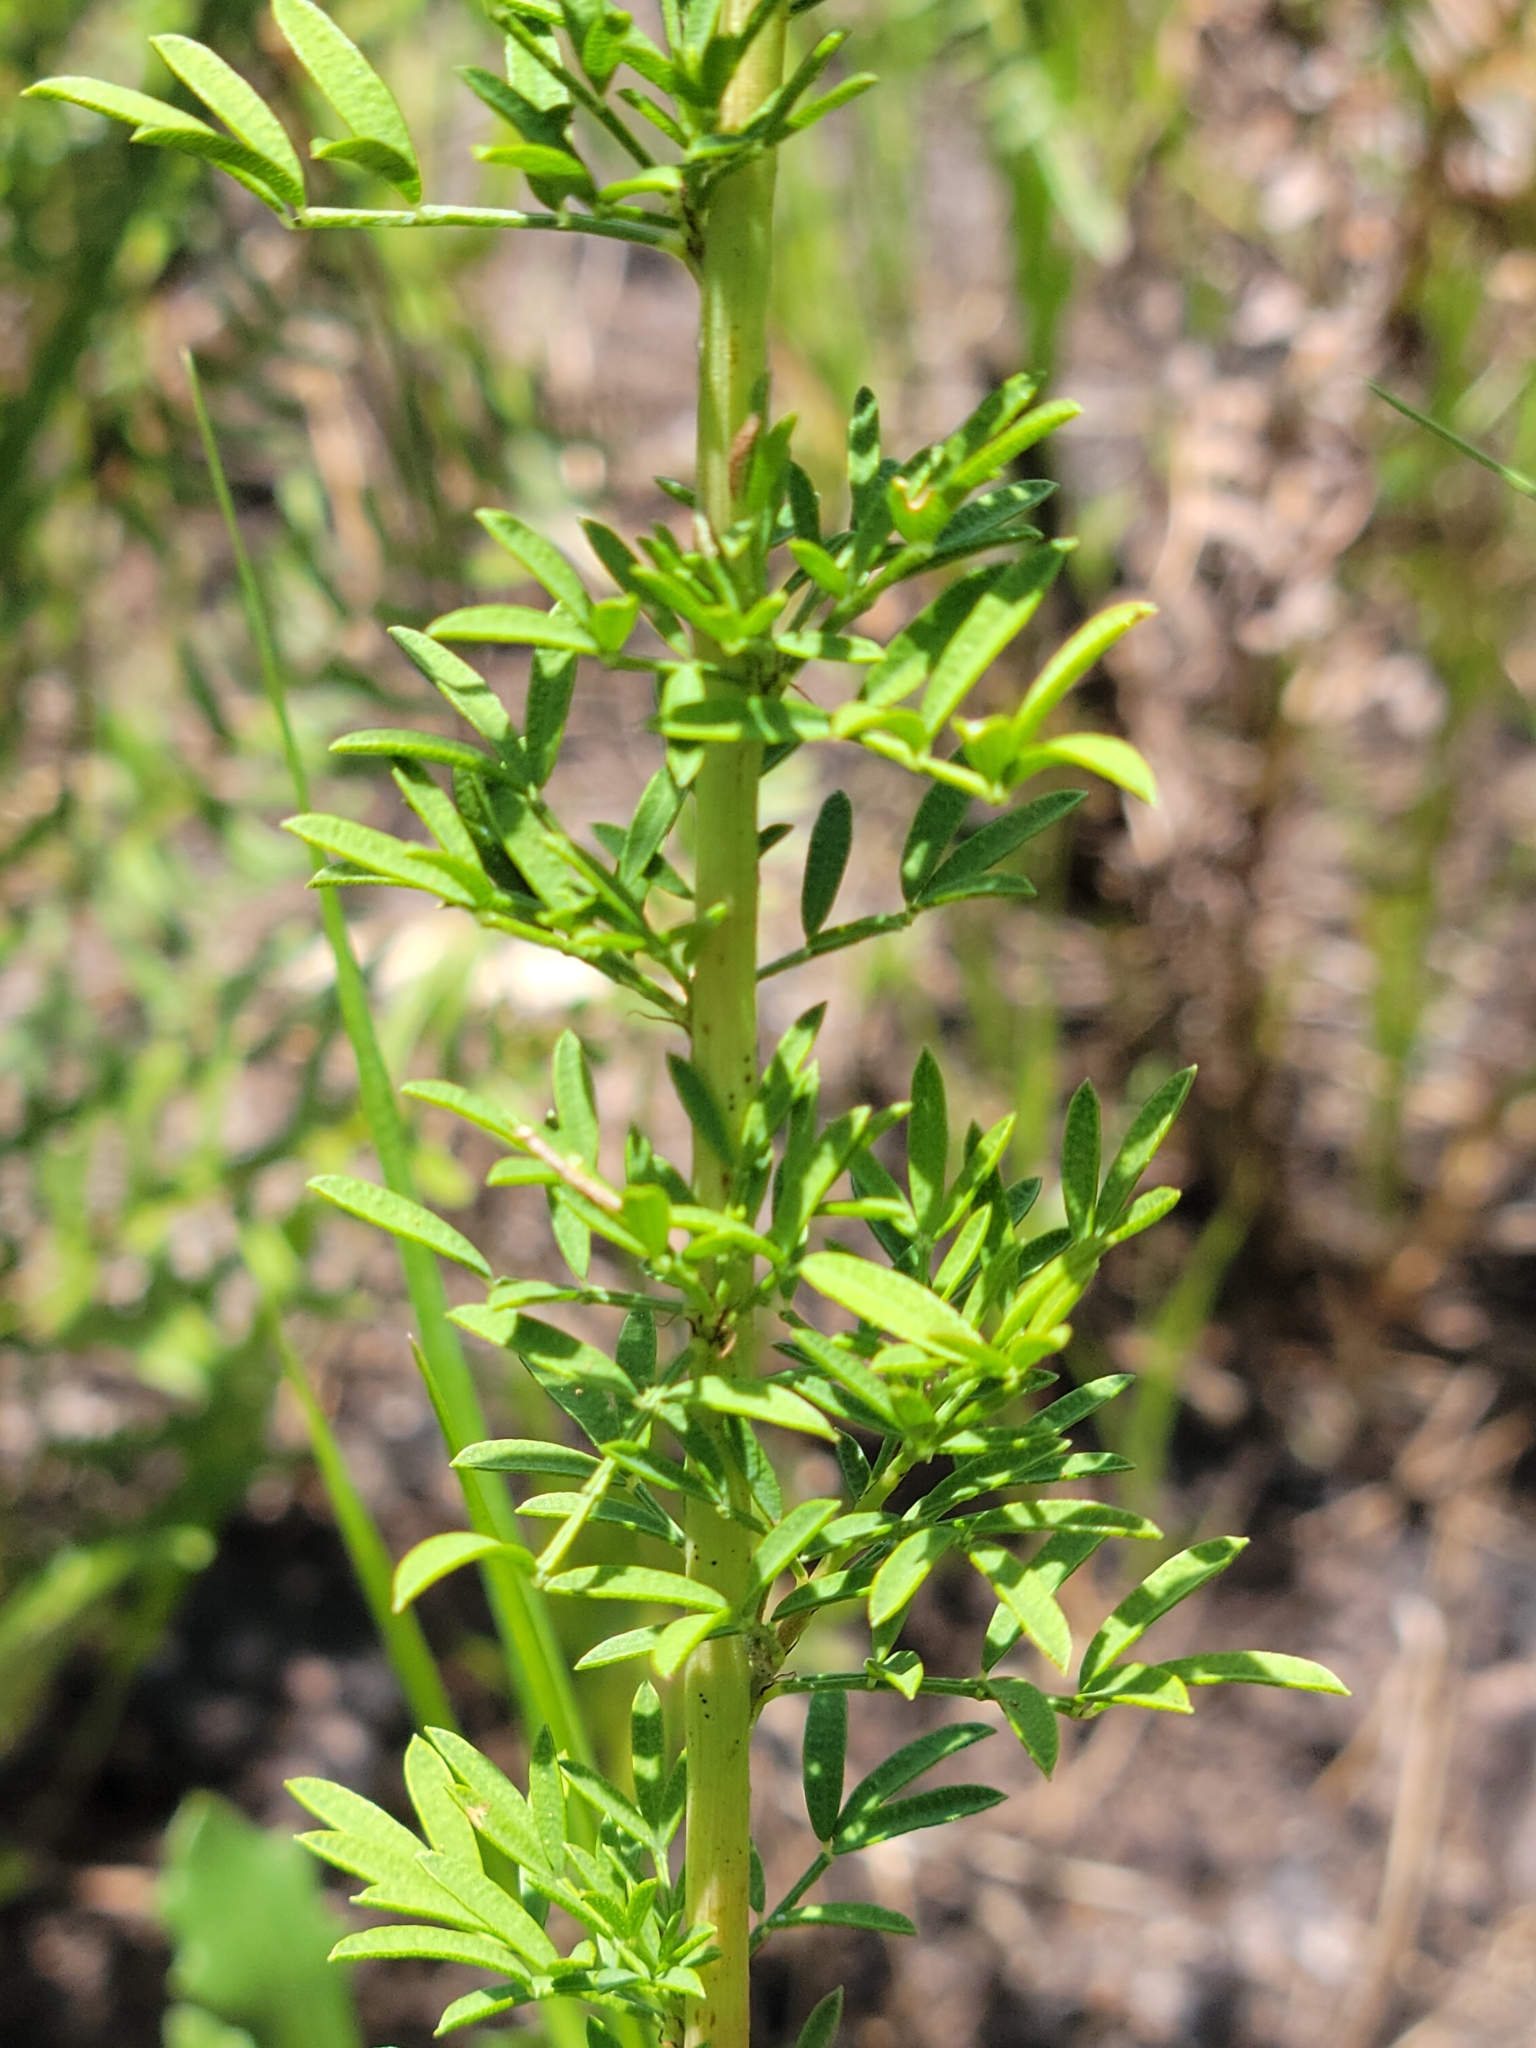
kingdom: Plantae
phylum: Tracheophyta
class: Magnoliopsida
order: Fabales
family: Fabaceae
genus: Dalea
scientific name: Dalea carnea
